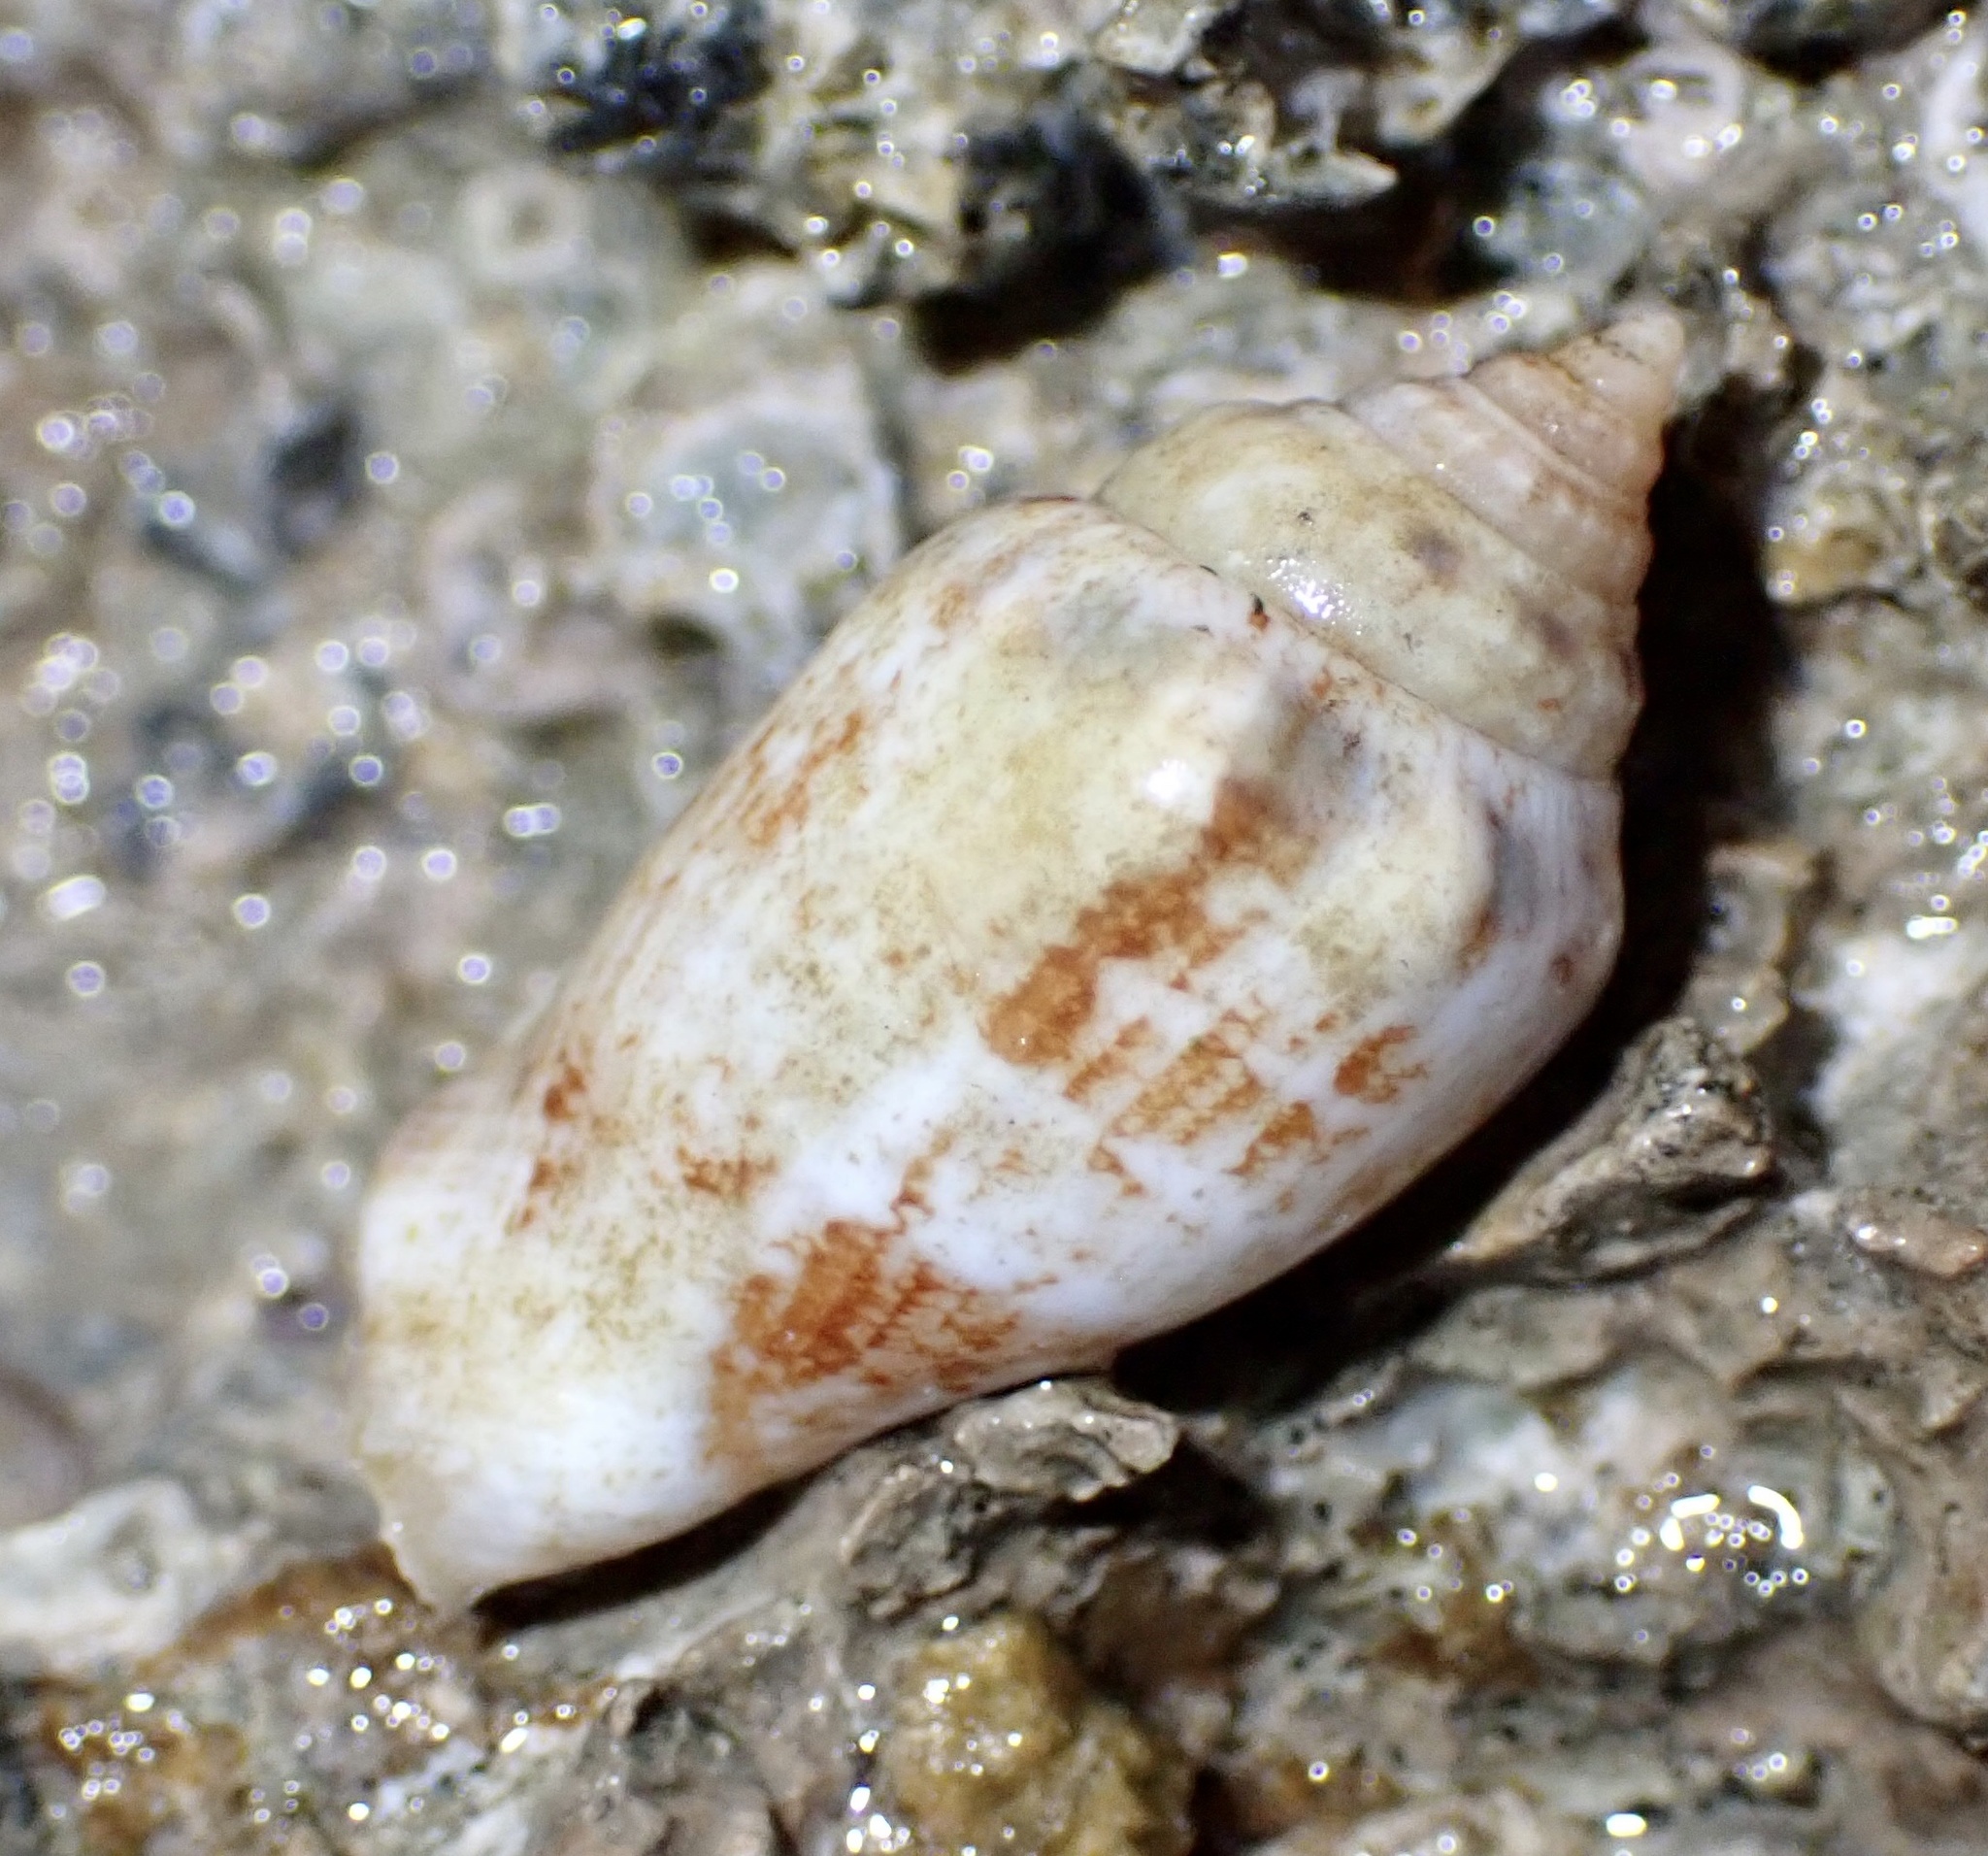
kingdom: Animalia
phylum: Mollusca
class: Gastropoda
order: Littorinimorpha
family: Strombidae
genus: Canarium
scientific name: Canarium mutabile
